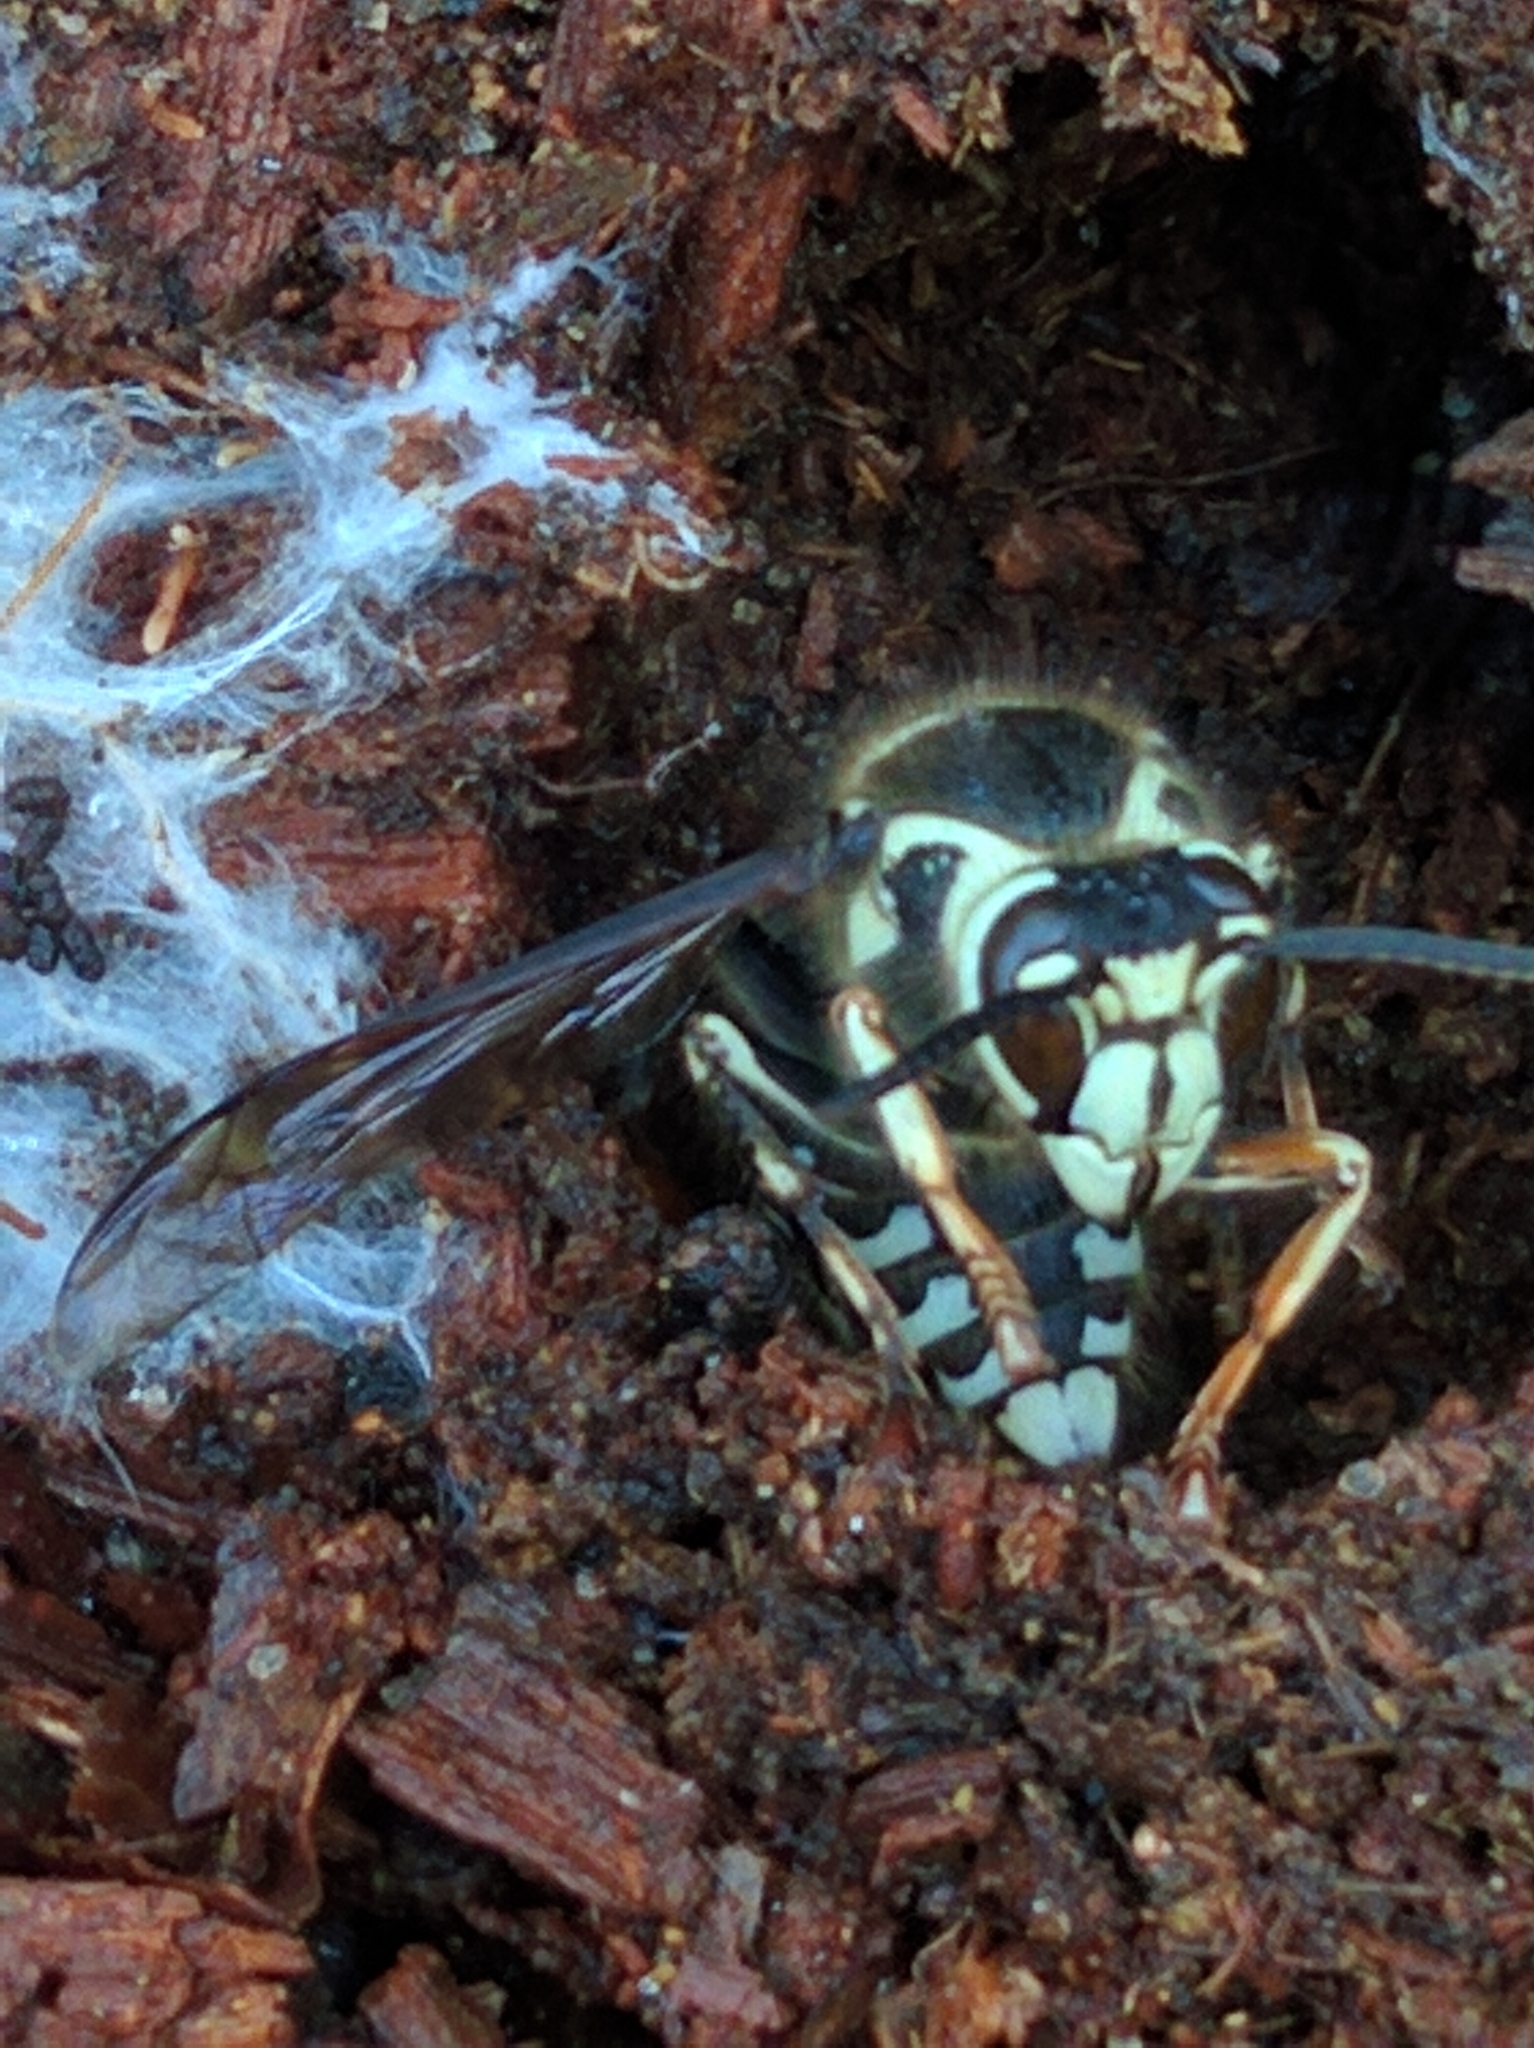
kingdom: Animalia
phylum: Arthropoda
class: Insecta
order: Hymenoptera
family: Vespidae
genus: Dolichovespula
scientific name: Dolichovespula maculata
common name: Bald-faced hornet
